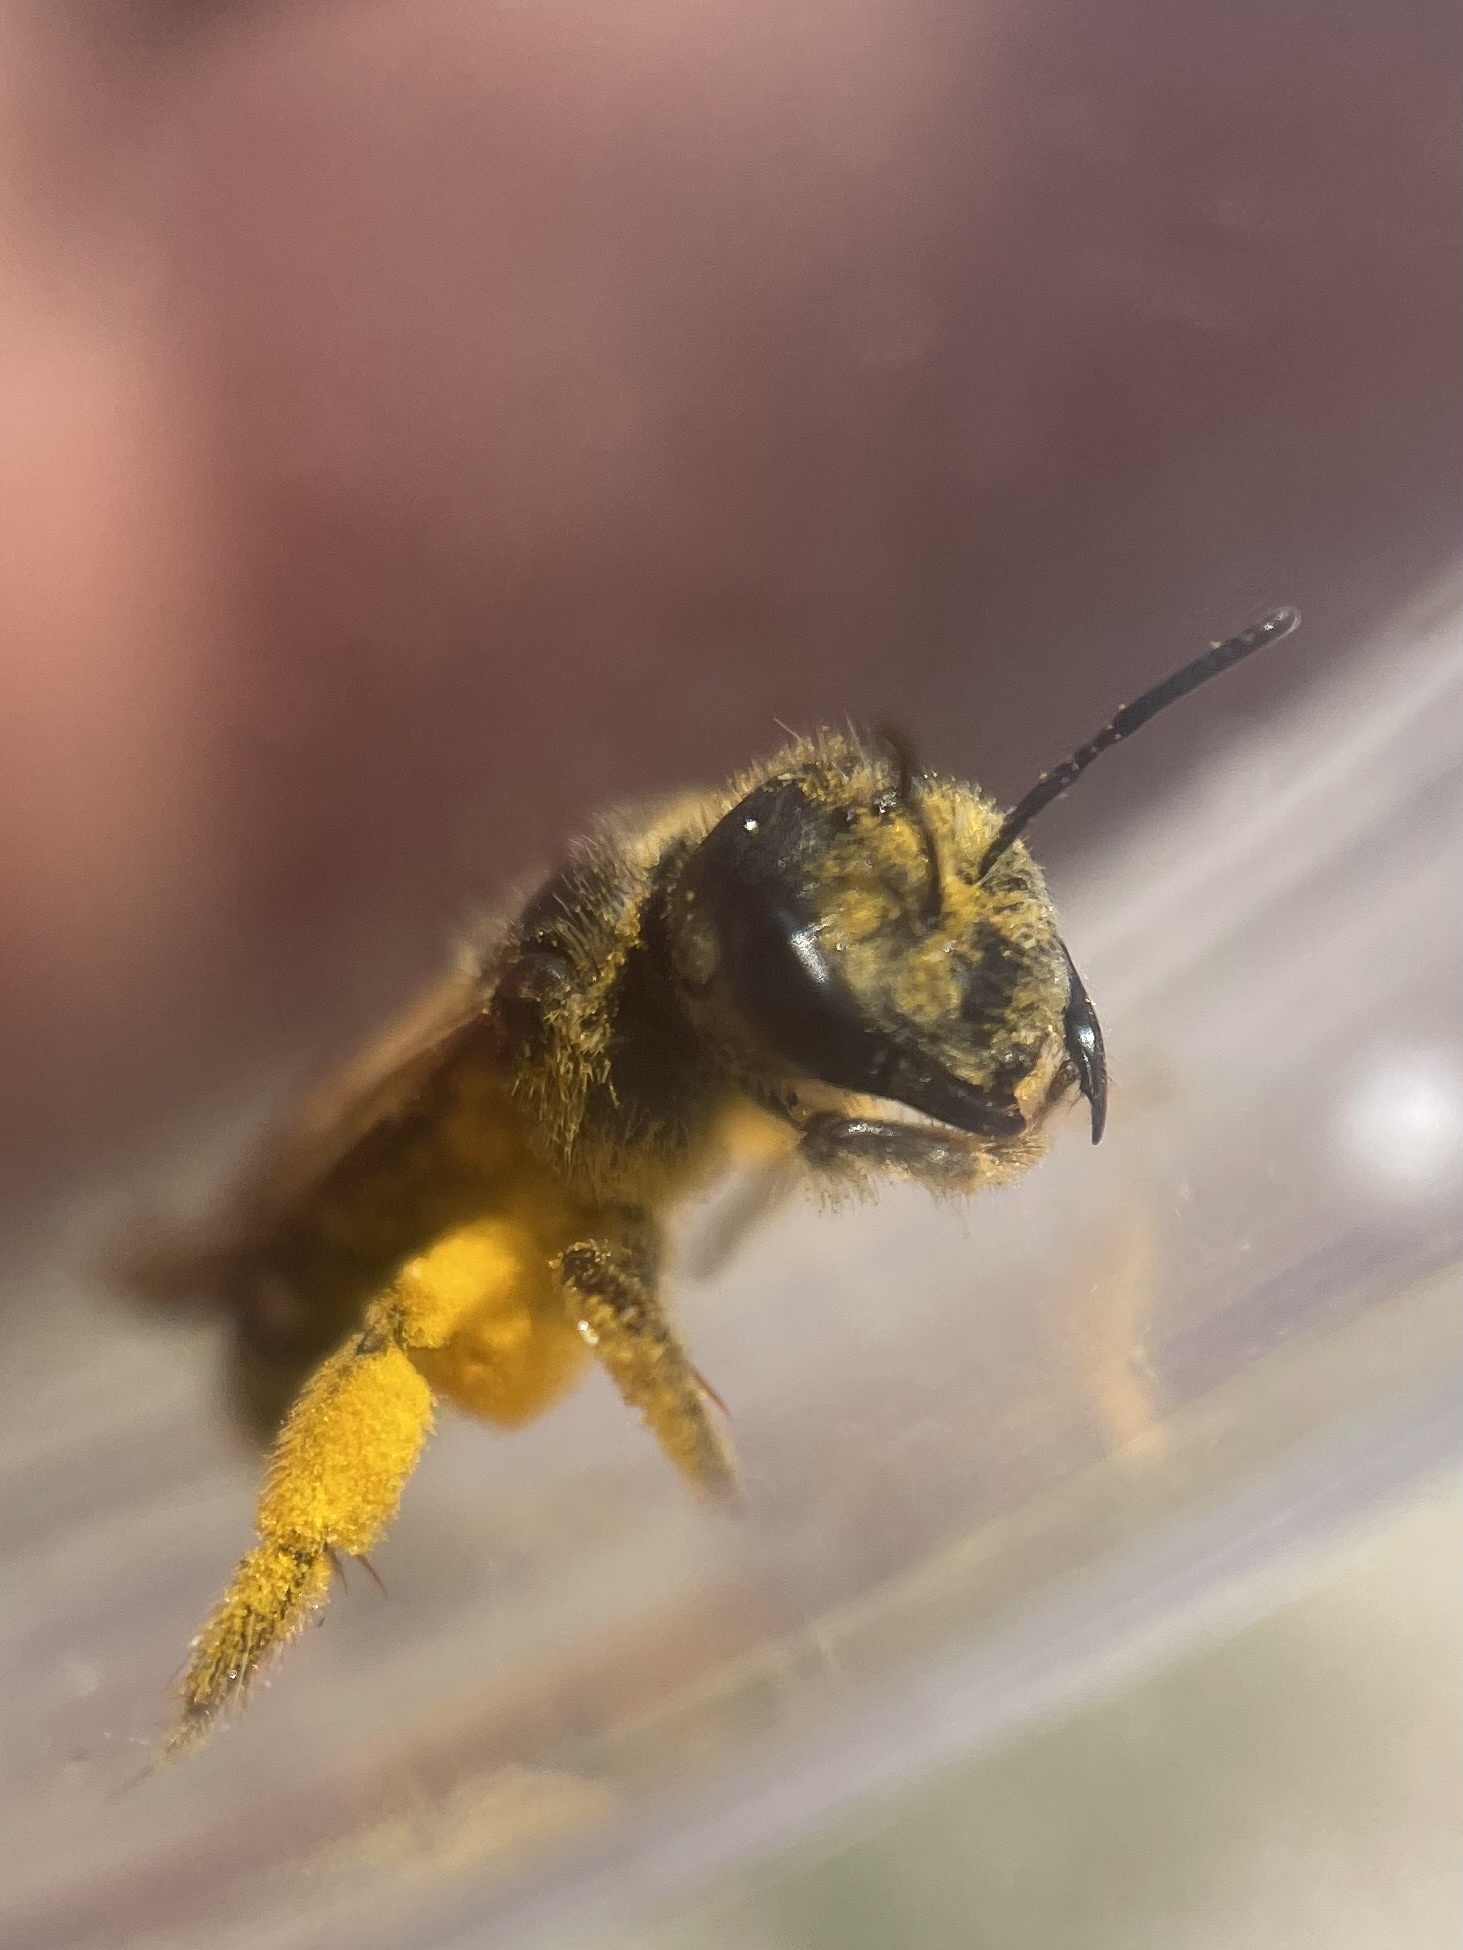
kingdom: Animalia
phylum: Arthropoda
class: Insecta
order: Hymenoptera
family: Halictidae
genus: Halictus
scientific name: Halictus ligatus
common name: Ligated furrow bee
